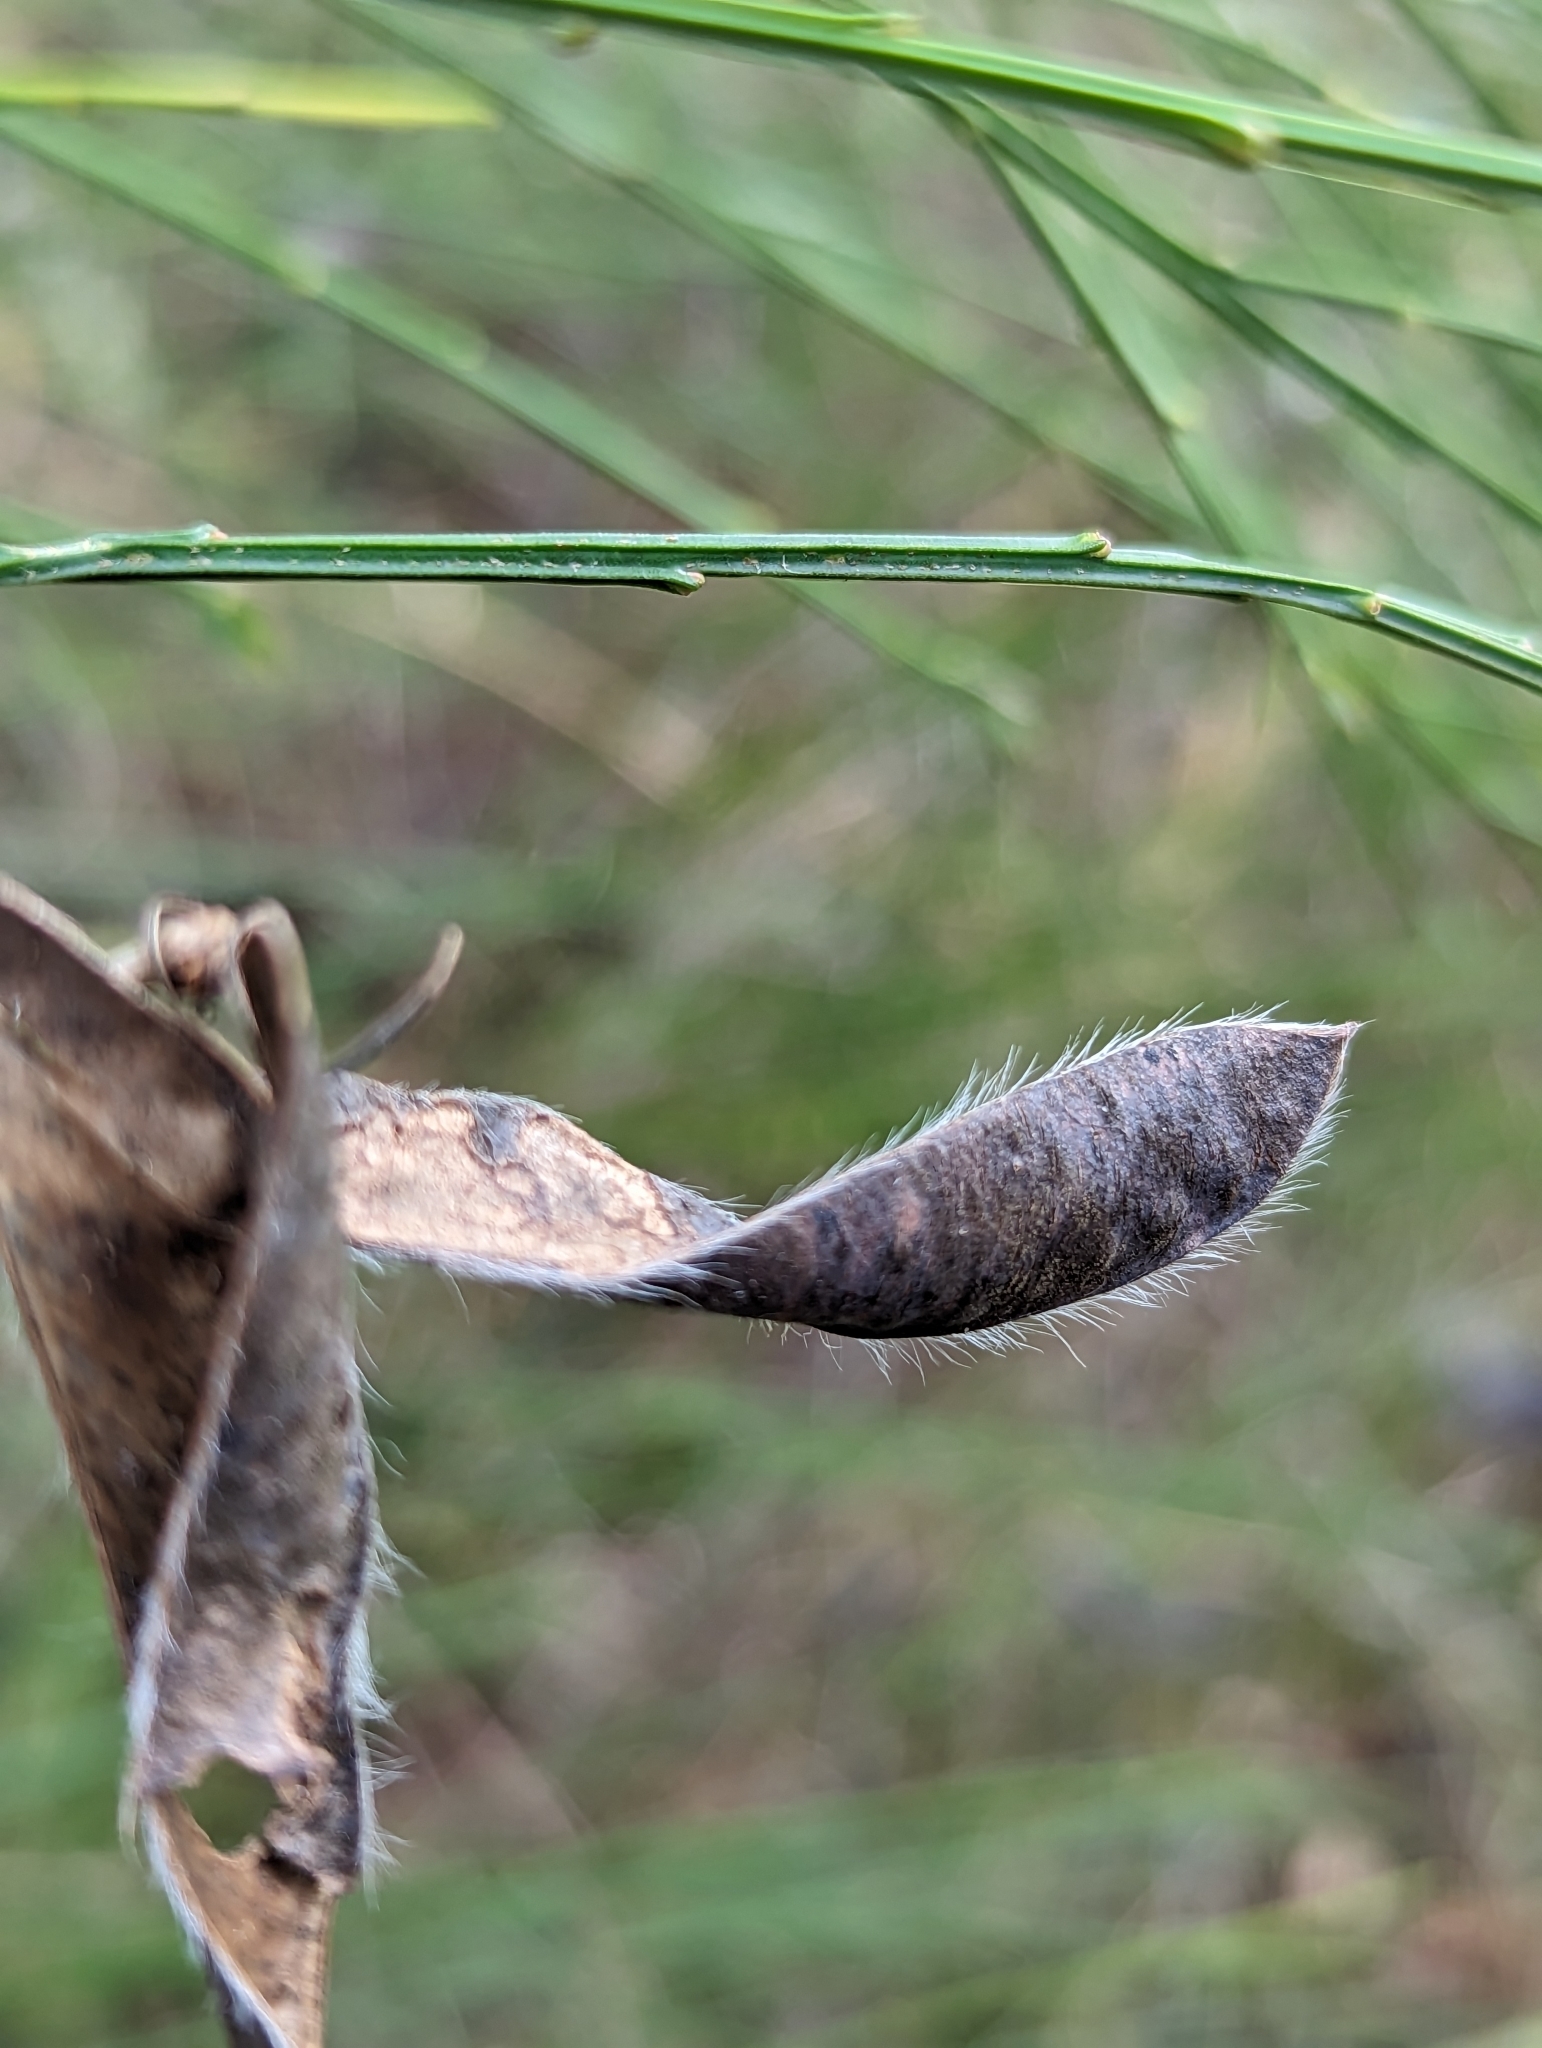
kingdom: Plantae
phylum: Tracheophyta
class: Magnoliopsida
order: Fabales
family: Fabaceae
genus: Cytisus
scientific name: Cytisus scoparius
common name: Scotch broom
